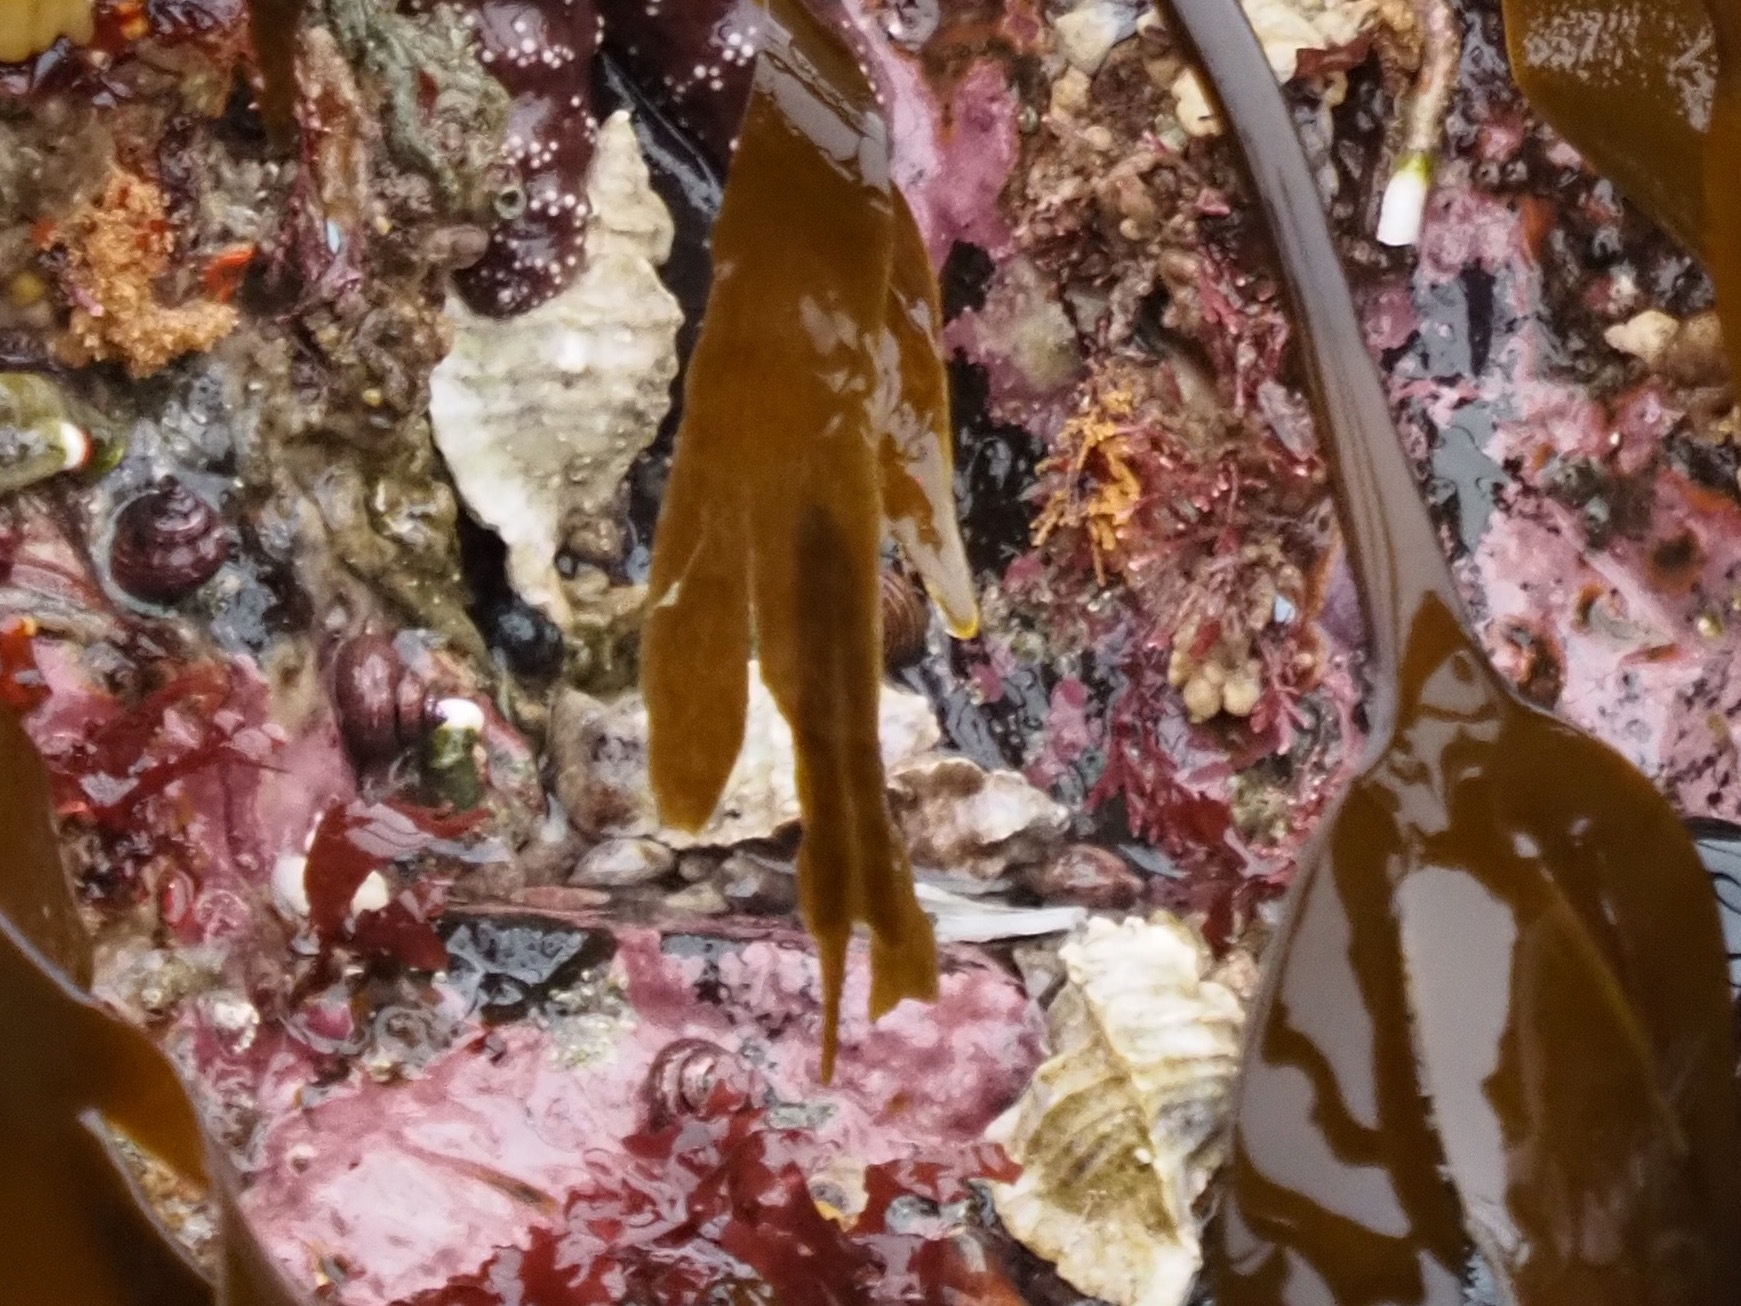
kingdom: Animalia
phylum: Mollusca
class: Gastropoda
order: Neogastropoda
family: Muricidae
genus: Ceratostoma
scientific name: Ceratostoma foliatum
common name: Foliate thorn purpura
